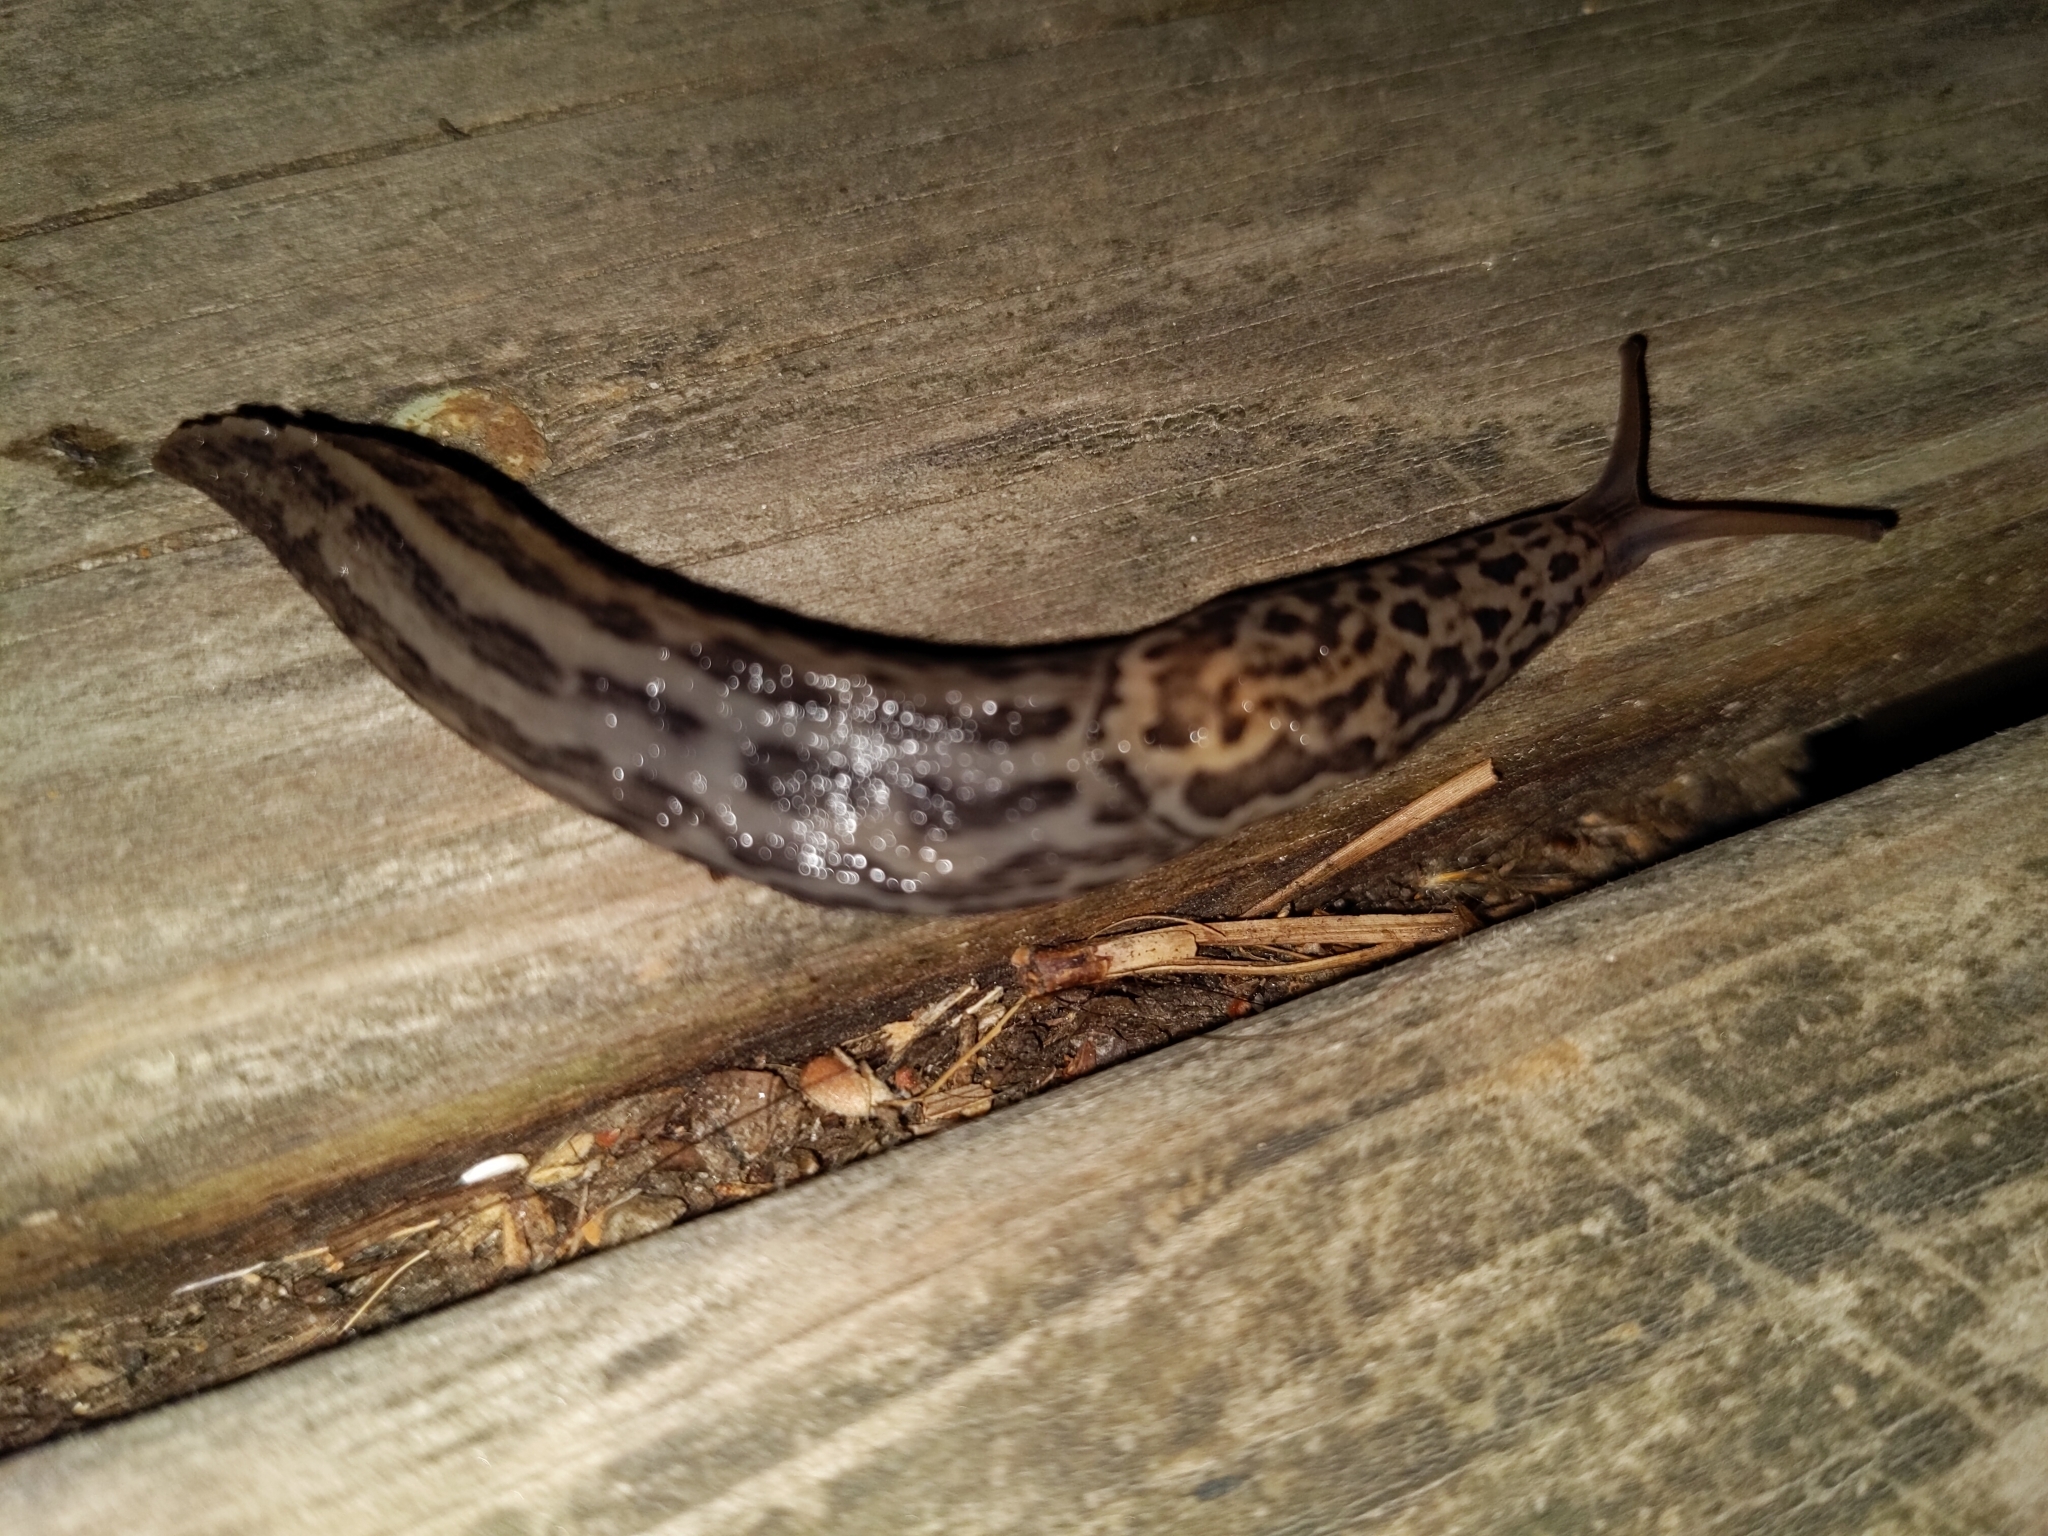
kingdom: Animalia
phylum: Mollusca
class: Gastropoda
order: Stylommatophora
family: Limacidae
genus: Limax
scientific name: Limax maximus
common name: Great grey slug
